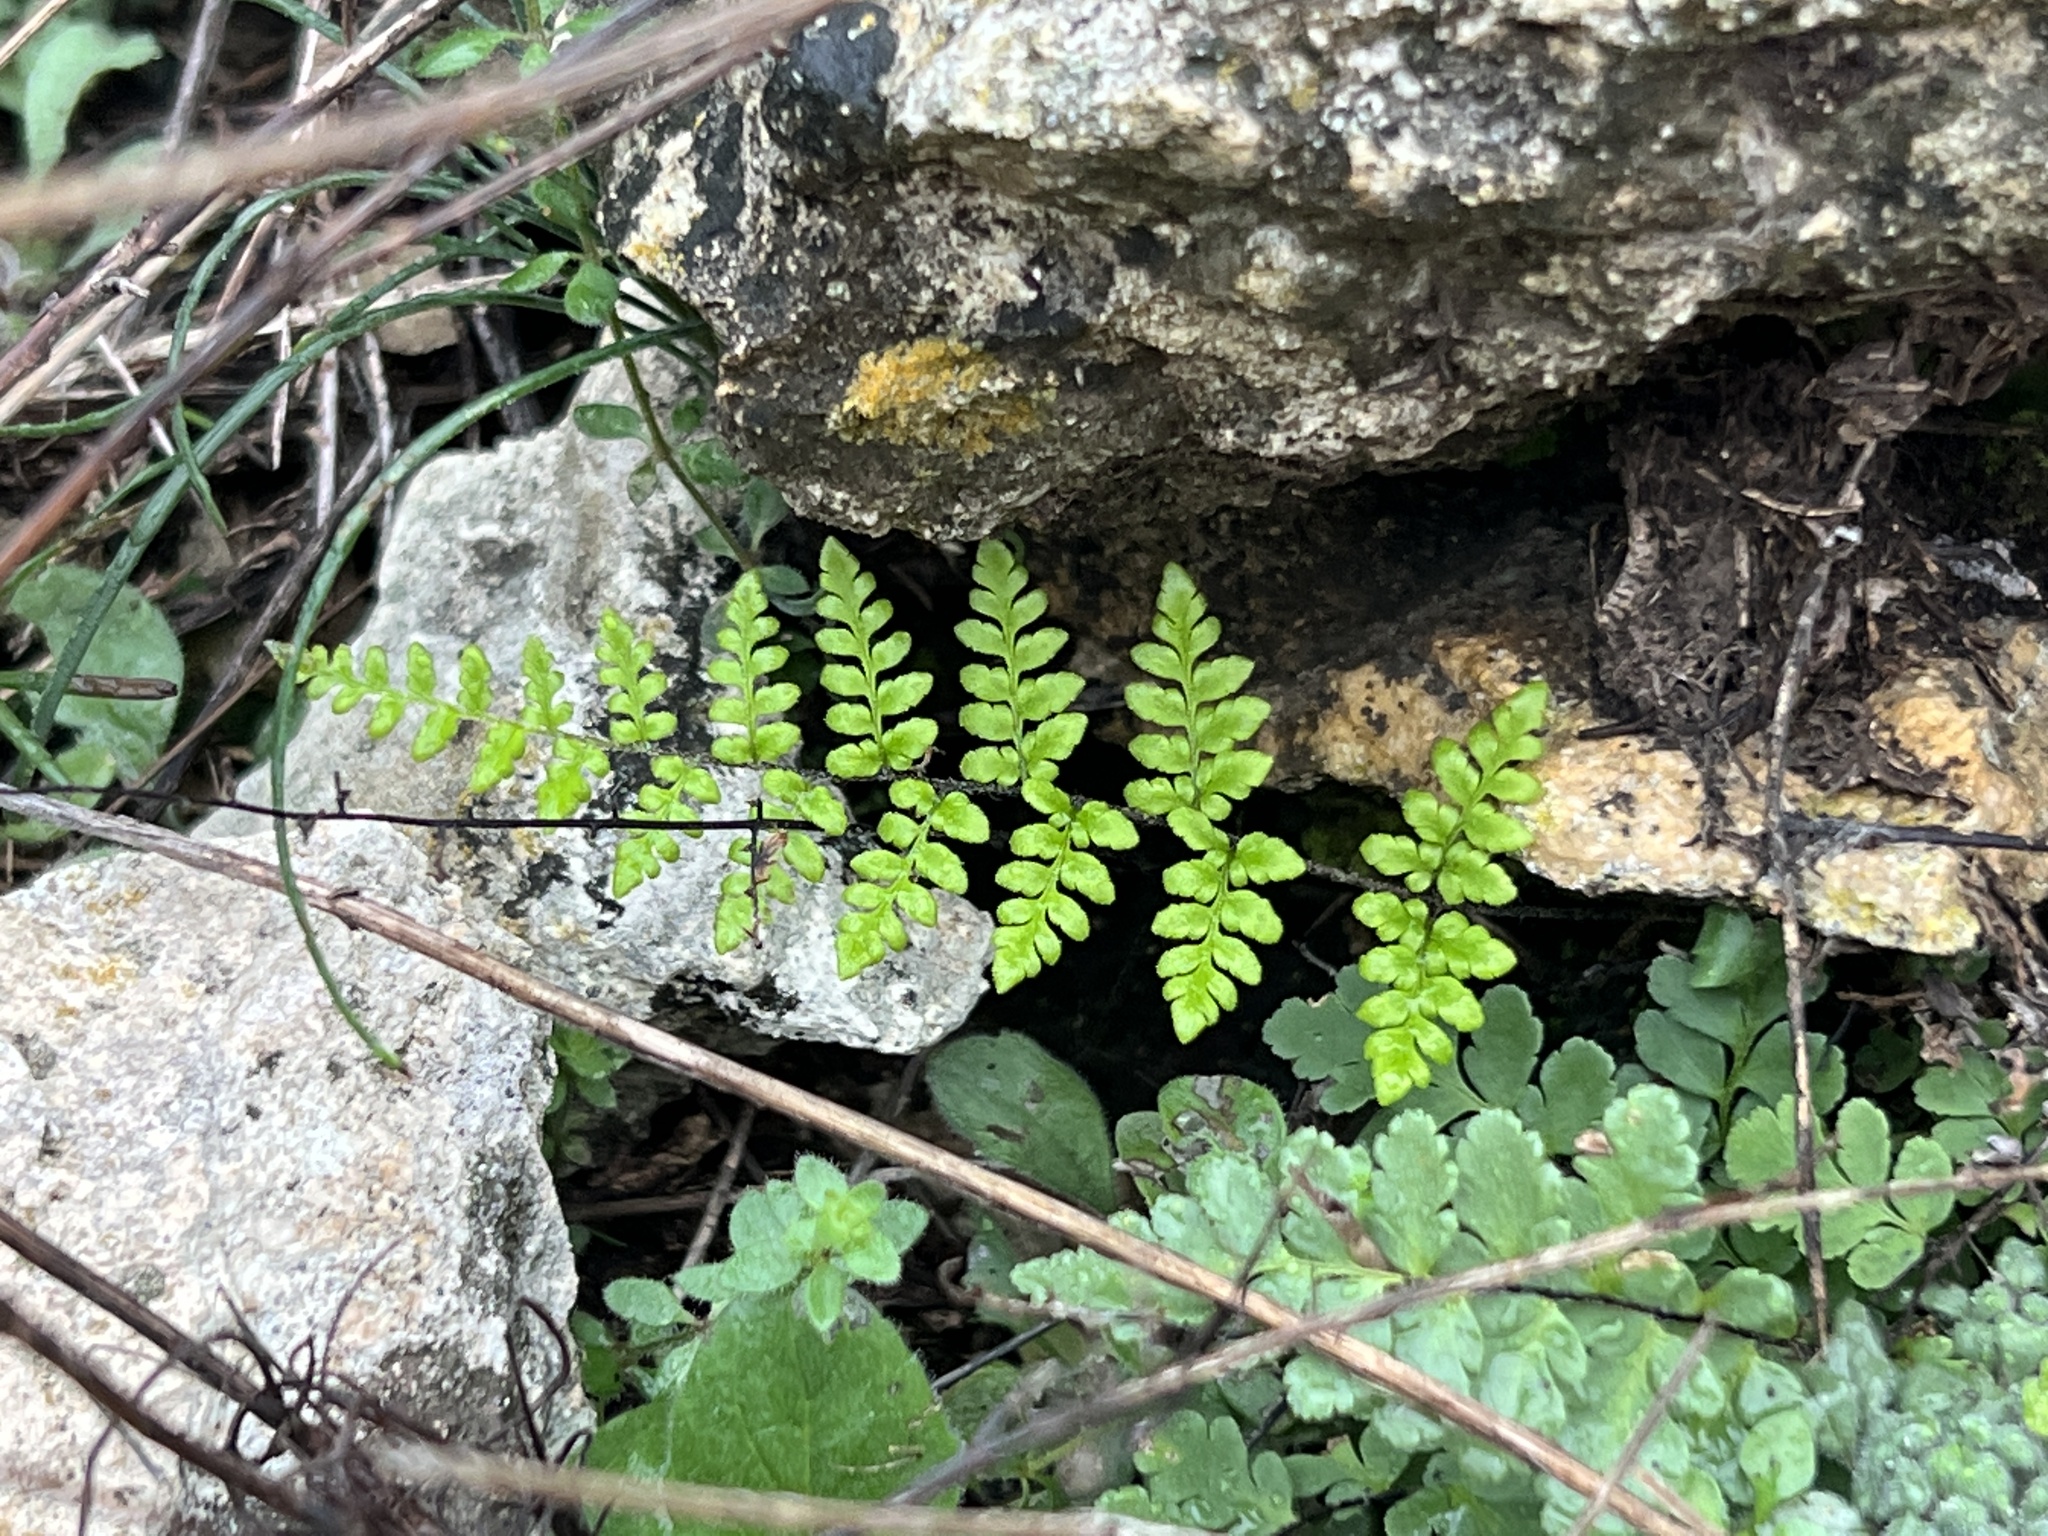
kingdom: Plantae
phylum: Tracheophyta
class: Polypodiopsida
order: Polypodiales
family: Pteridaceae
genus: Myriopteris
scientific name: Myriopteris alabamensis
